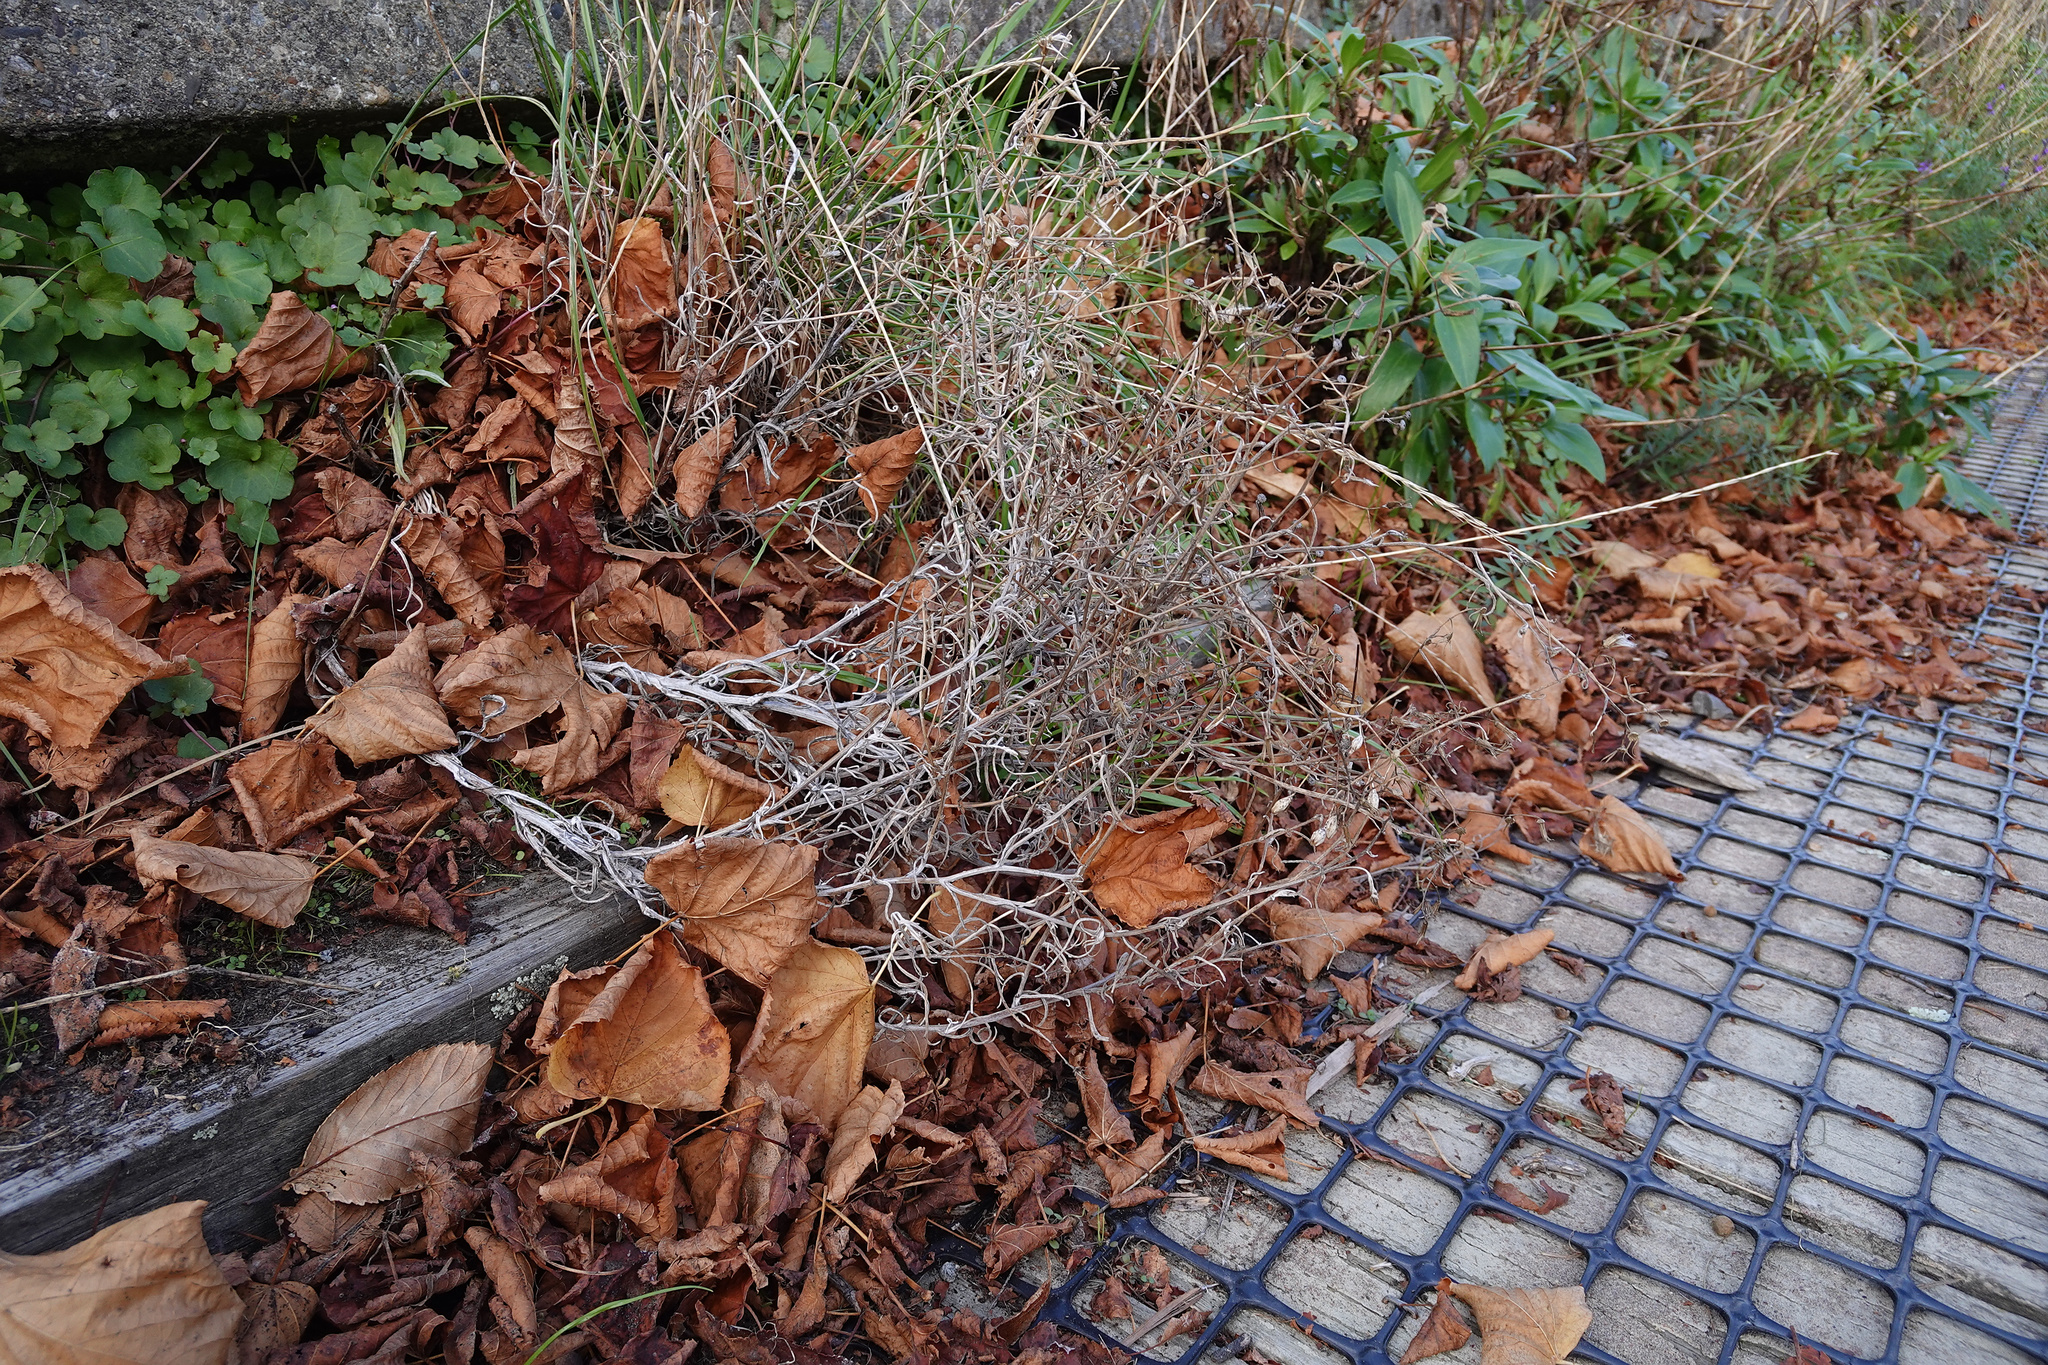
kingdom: Plantae
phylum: Tracheophyta
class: Magnoliopsida
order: Asterales
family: Asteraceae
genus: Senecio
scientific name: Senecio quadridentatus
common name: Cotton fireweed
